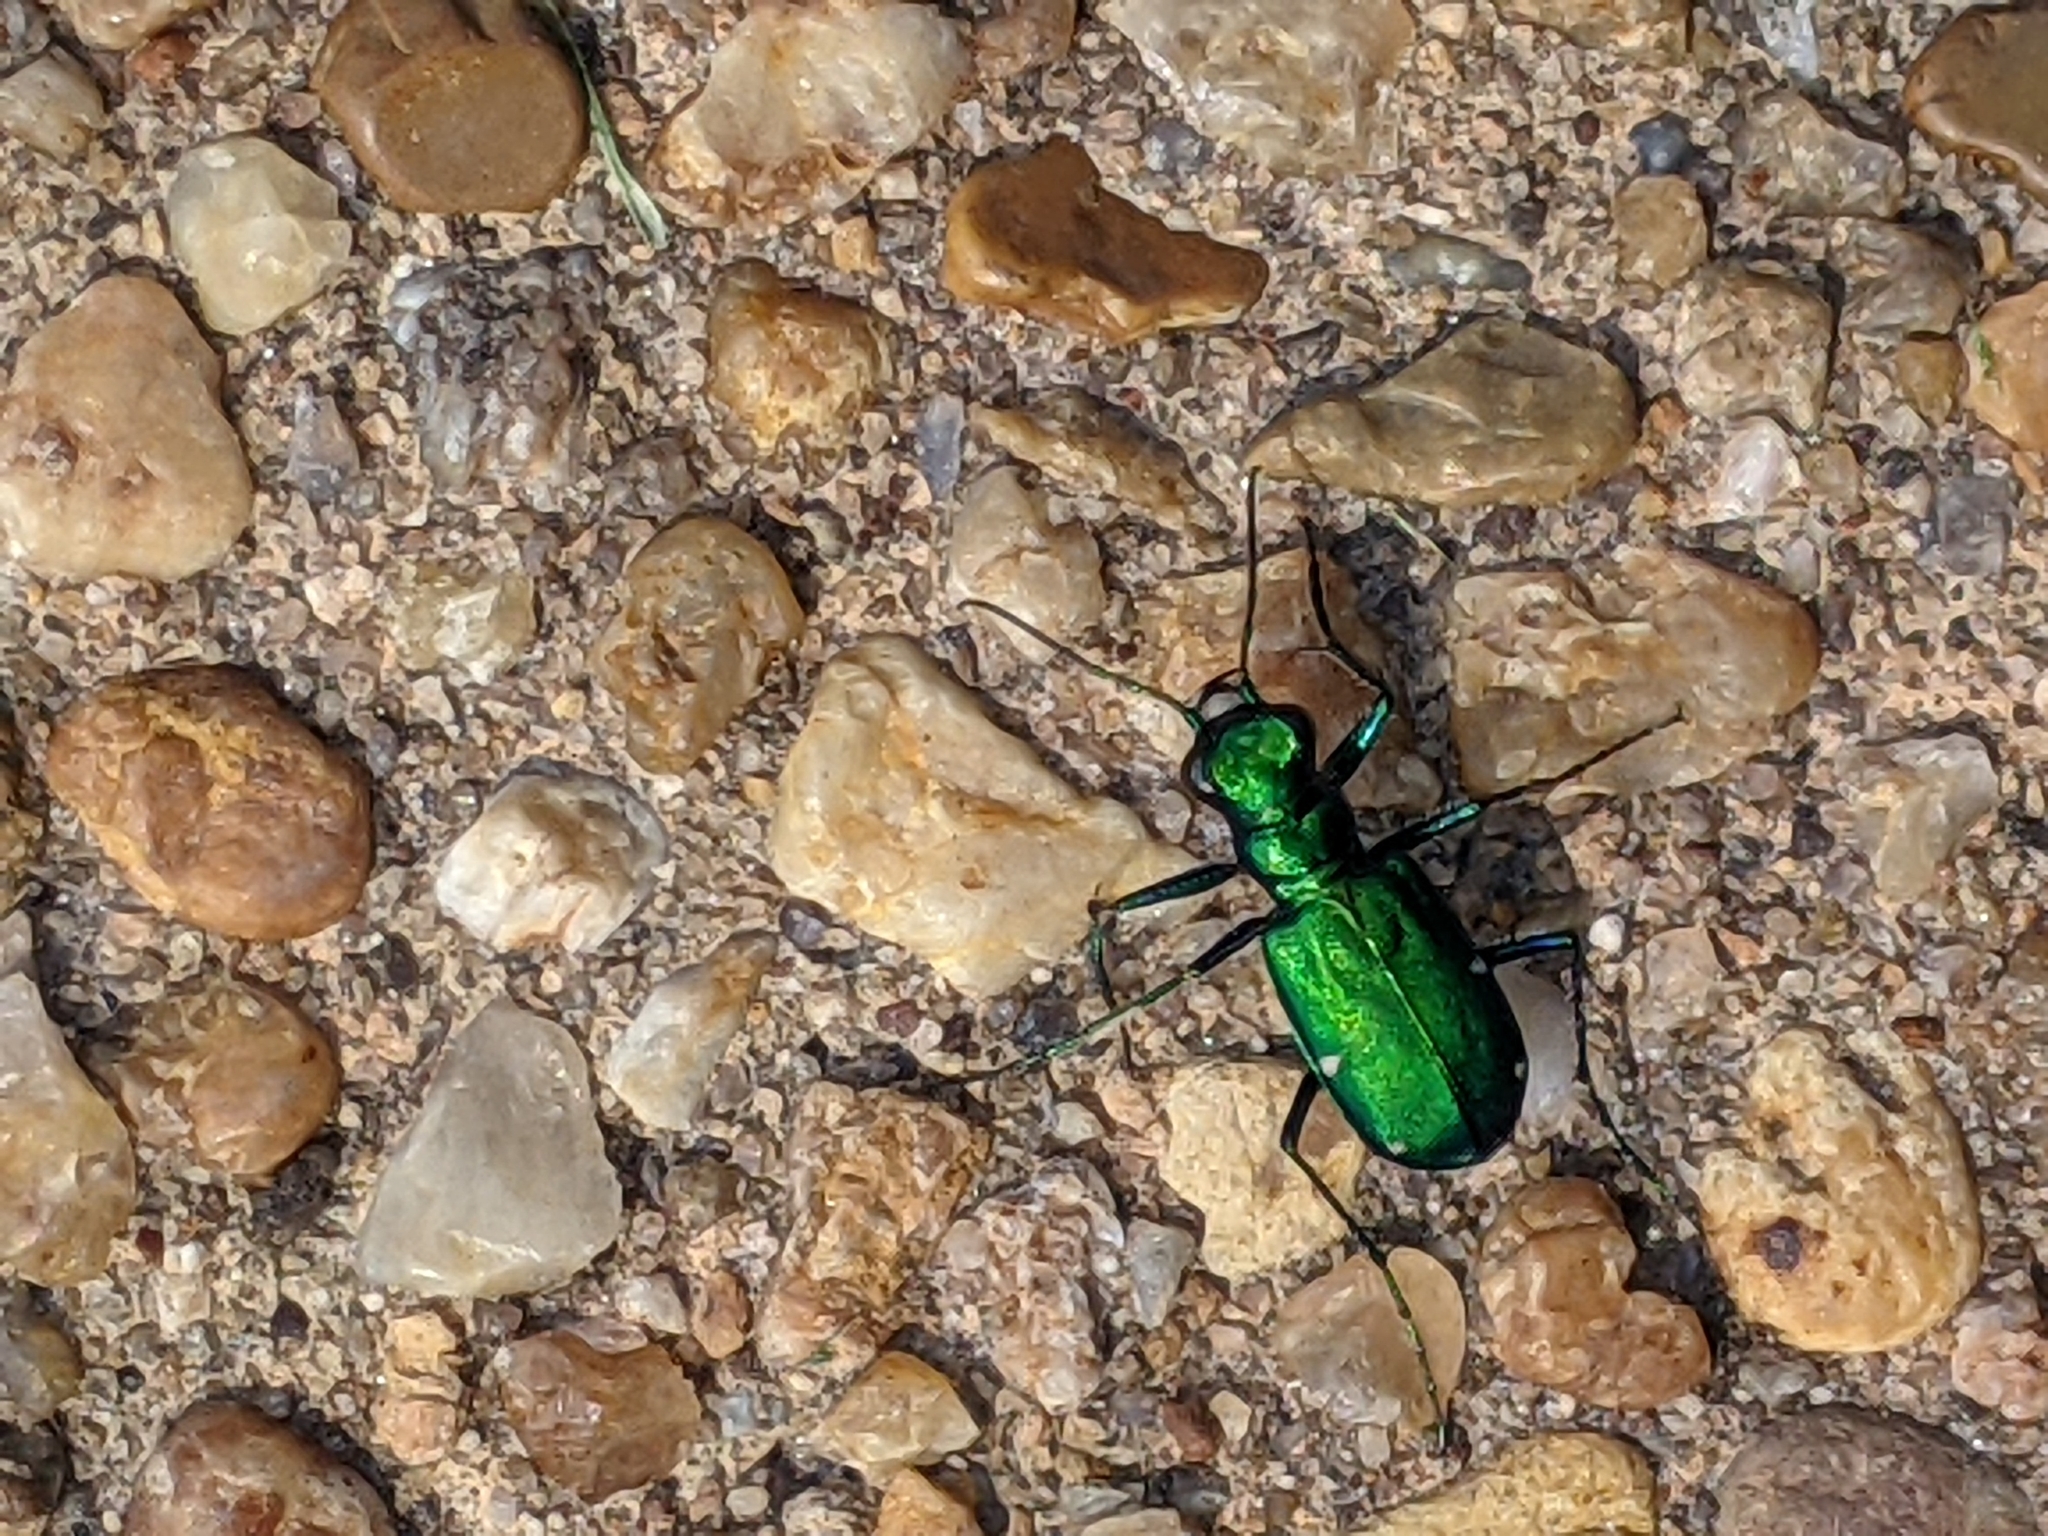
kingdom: Animalia
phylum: Arthropoda
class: Insecta
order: Coleoptera
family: Carabidae
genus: Cicindela
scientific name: Cicindela sexguttata
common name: Six-spotted tiger beetle
